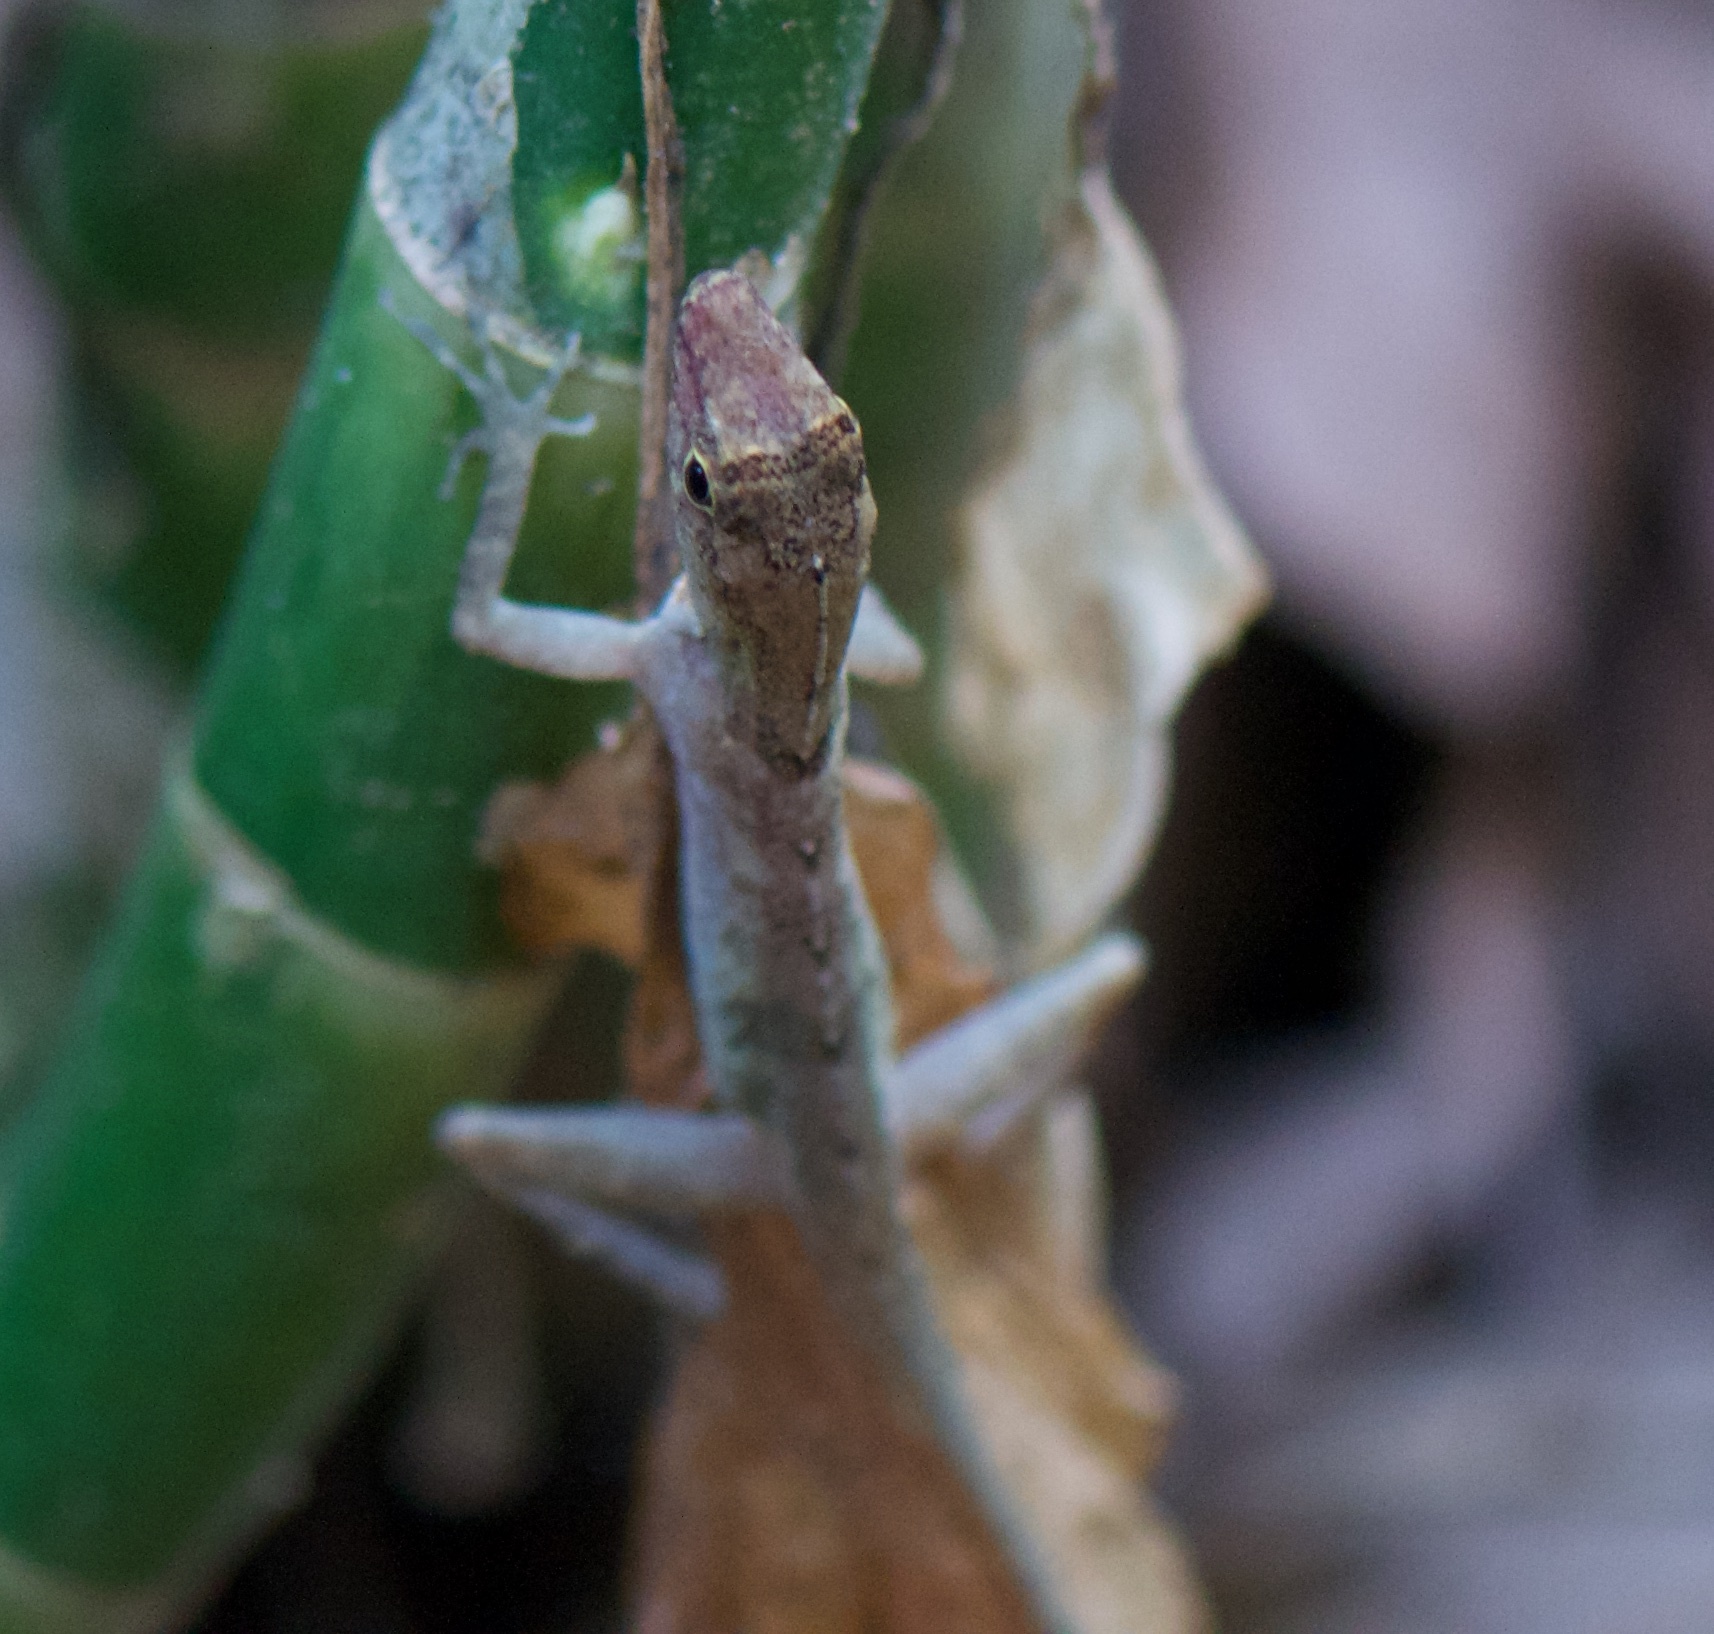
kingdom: Animalia
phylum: Chordata
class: Squamata
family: Dactyloidae
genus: Anolis
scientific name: Anolis limifrons
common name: Border anole
